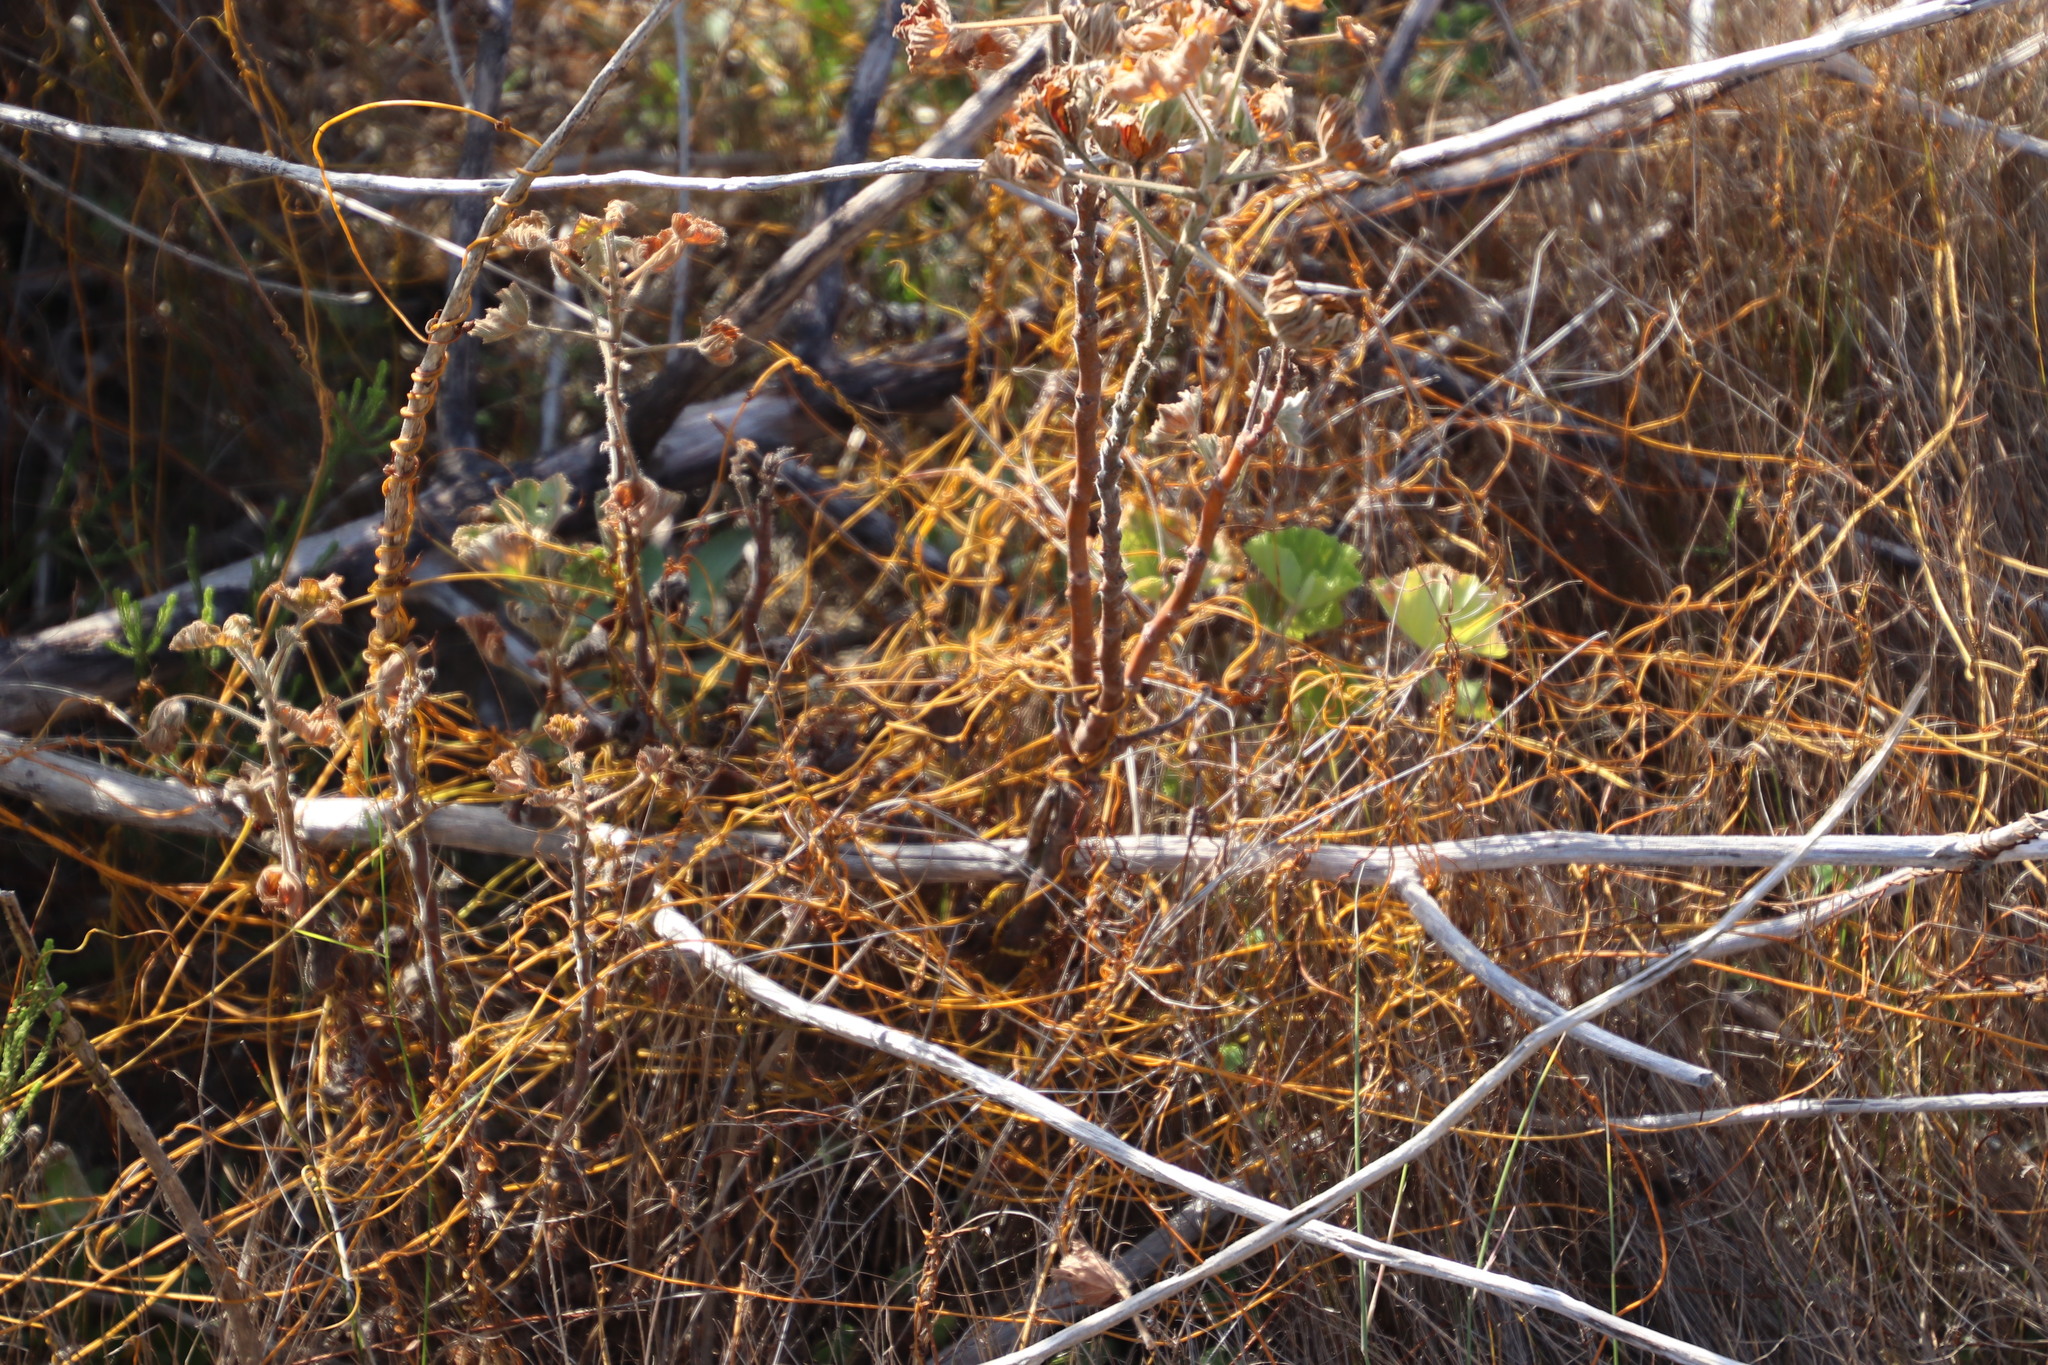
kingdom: Plantae
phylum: Tracheophyta
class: Magnoliopsida
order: Laurales
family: Lauraceae
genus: Cassytha
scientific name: Cassytha ciliolata
